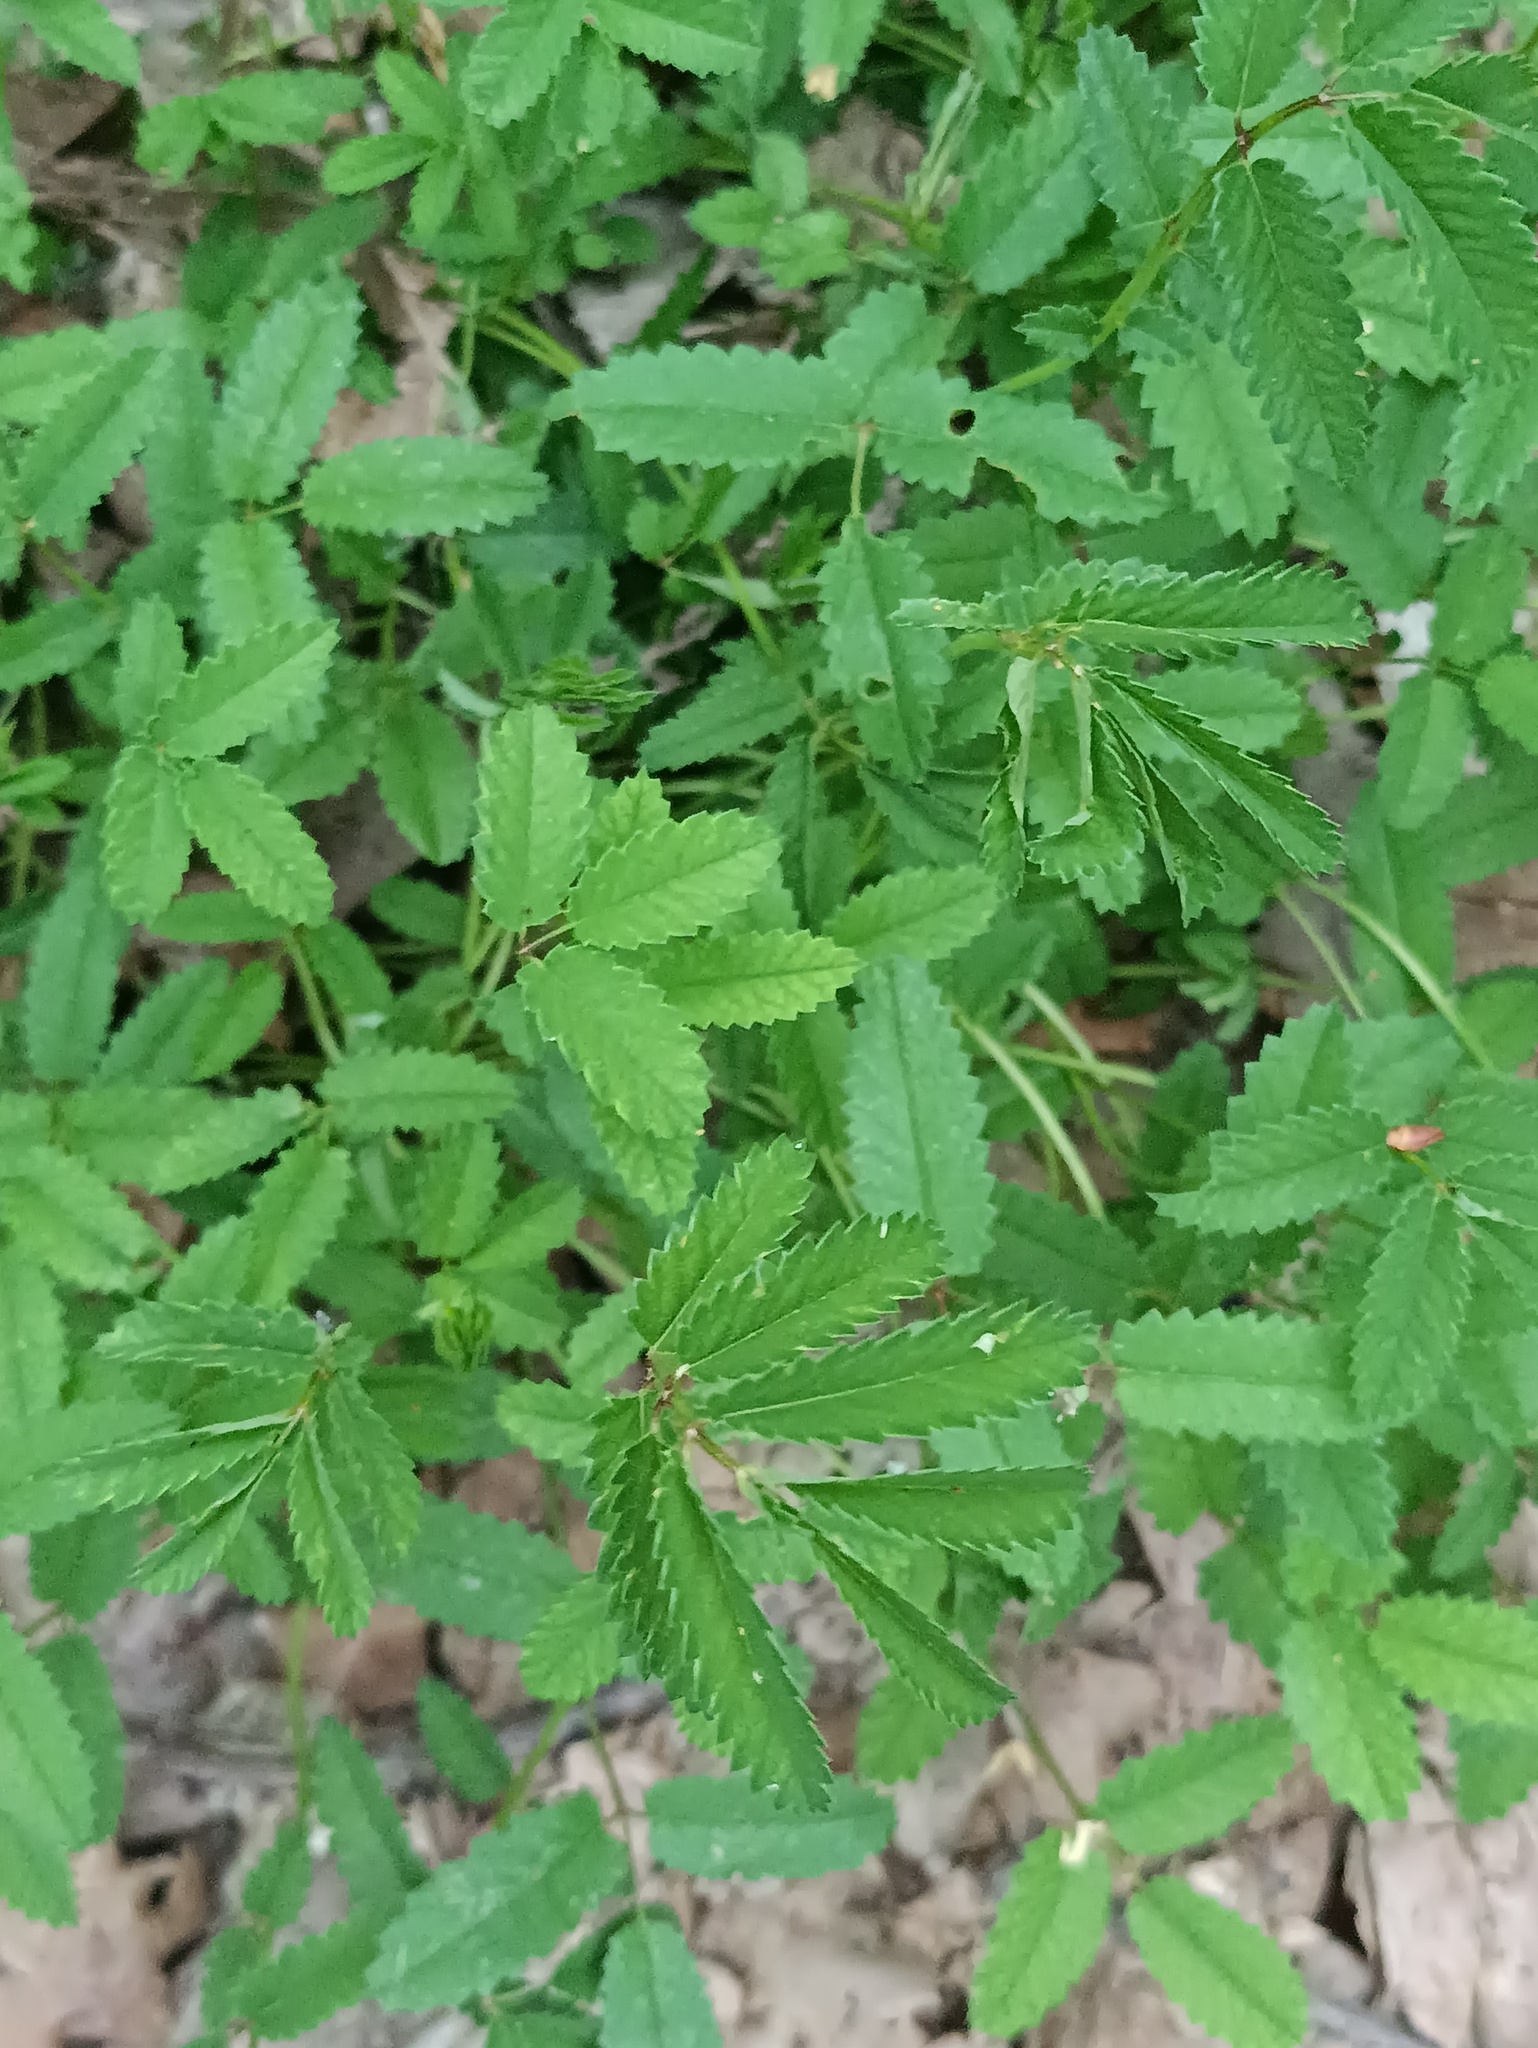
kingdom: Plantae
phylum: Tracheophyta
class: Magnoliopsida
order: Rosales
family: Rosaceae
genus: Sanguisorba
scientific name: Sanguisorba officinalis
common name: Great burnet
